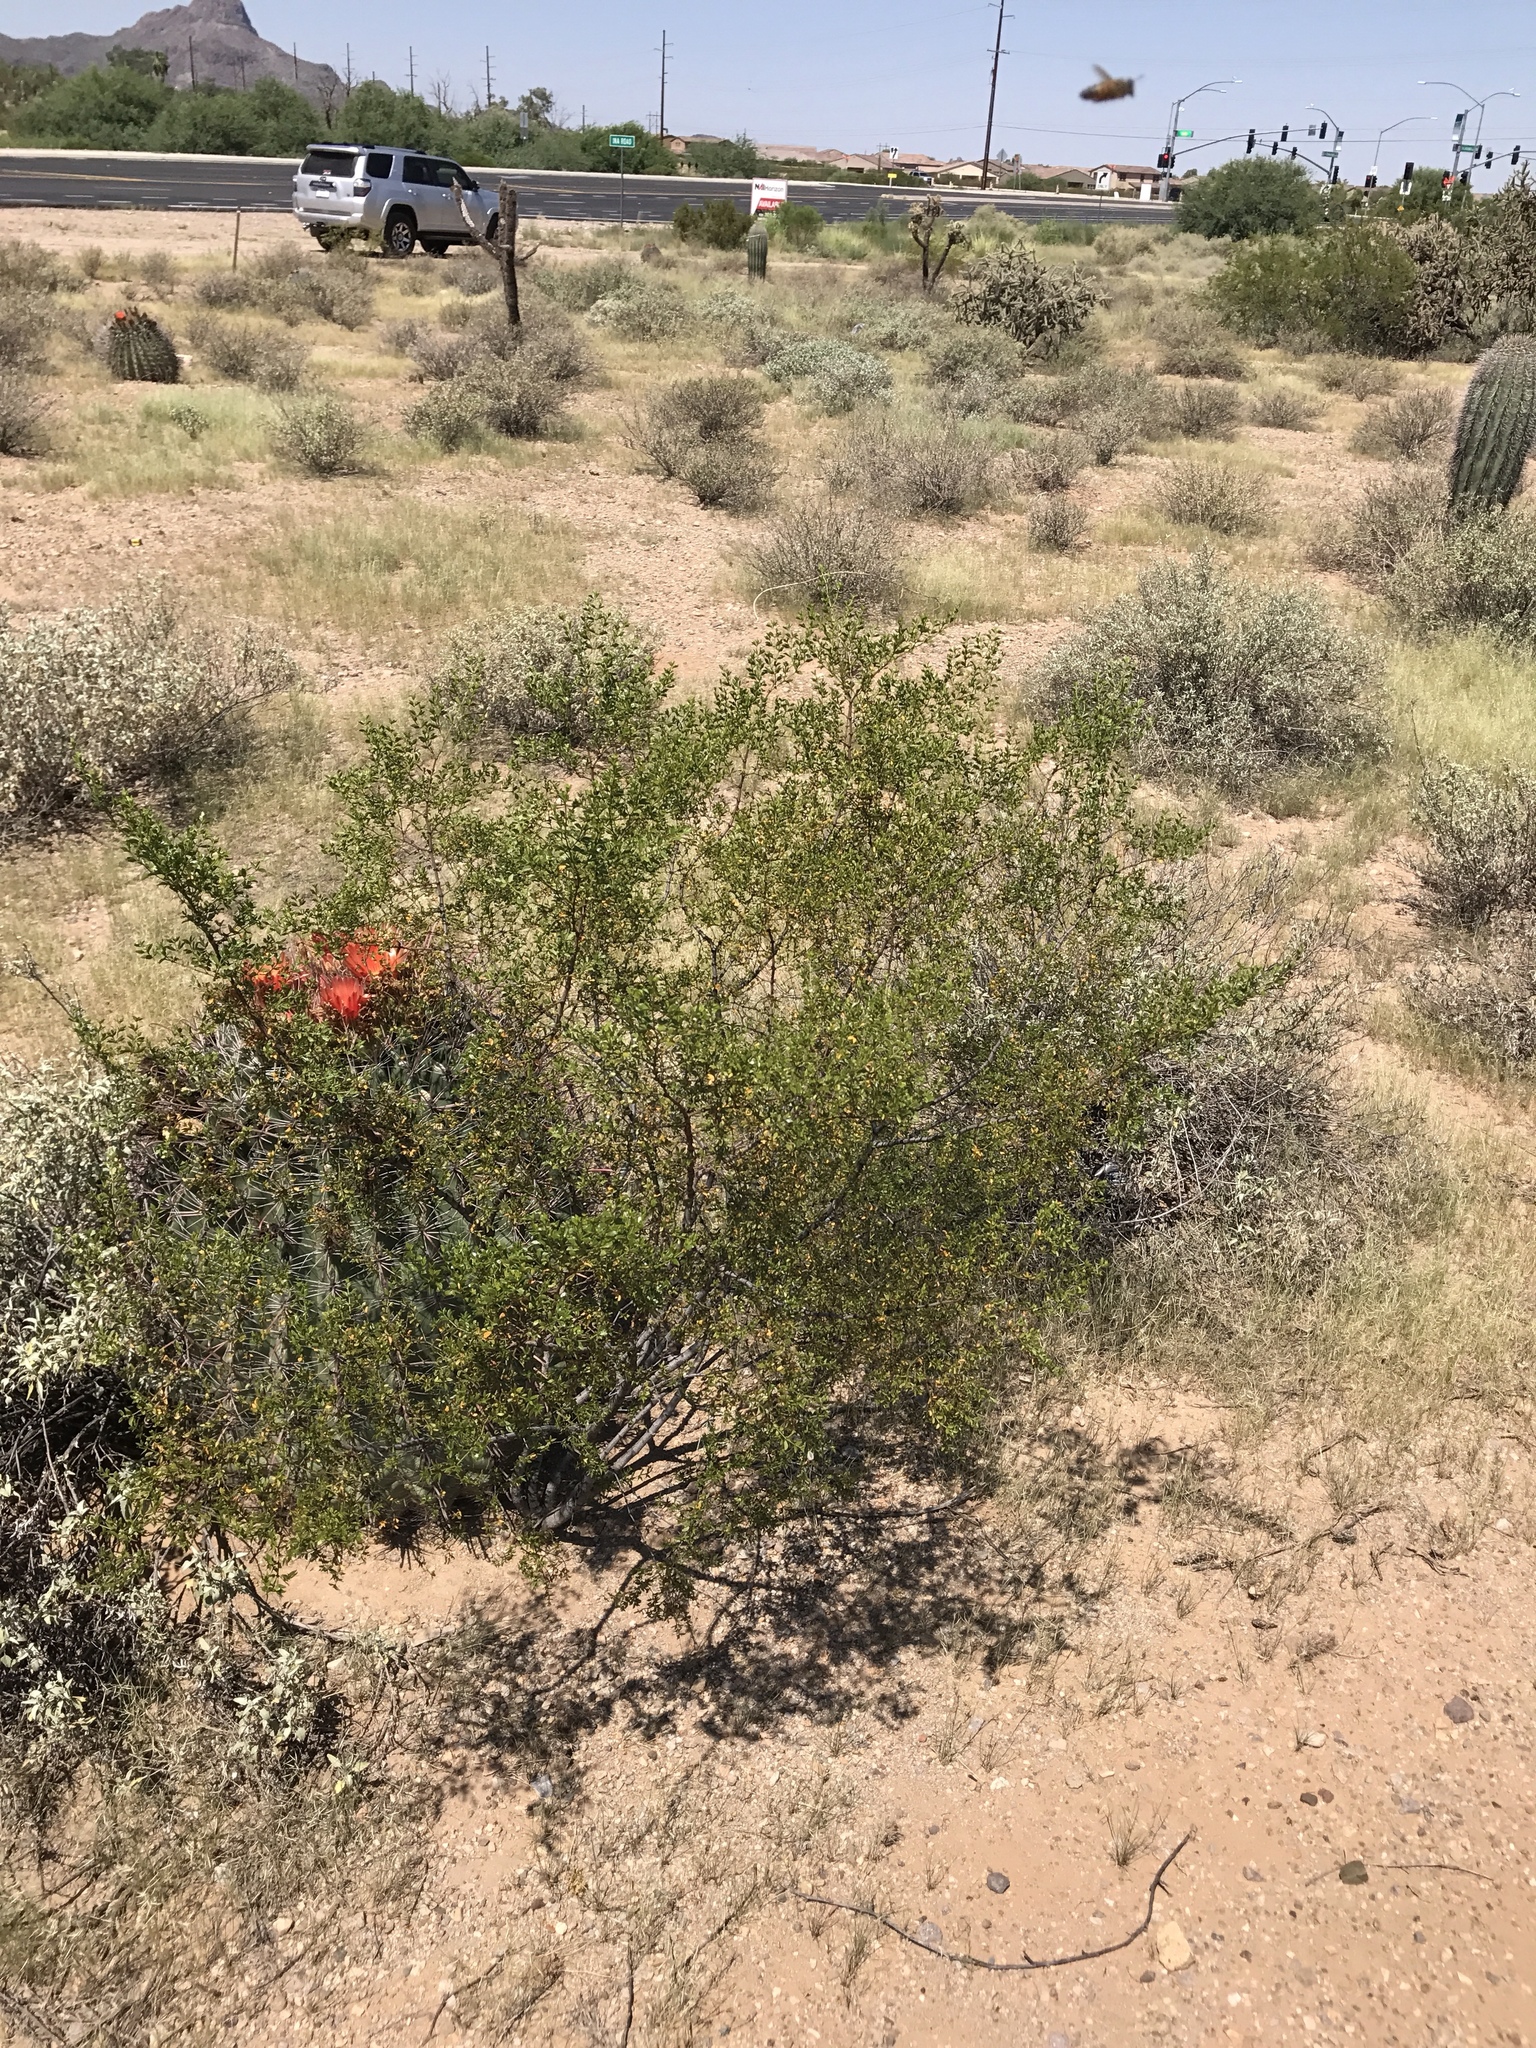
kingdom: Plantae
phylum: Tracheophyta
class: Magnoliopsida
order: Zygophyllales
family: Zygophyllaceae
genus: Larrea
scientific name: Larrea tridentata
